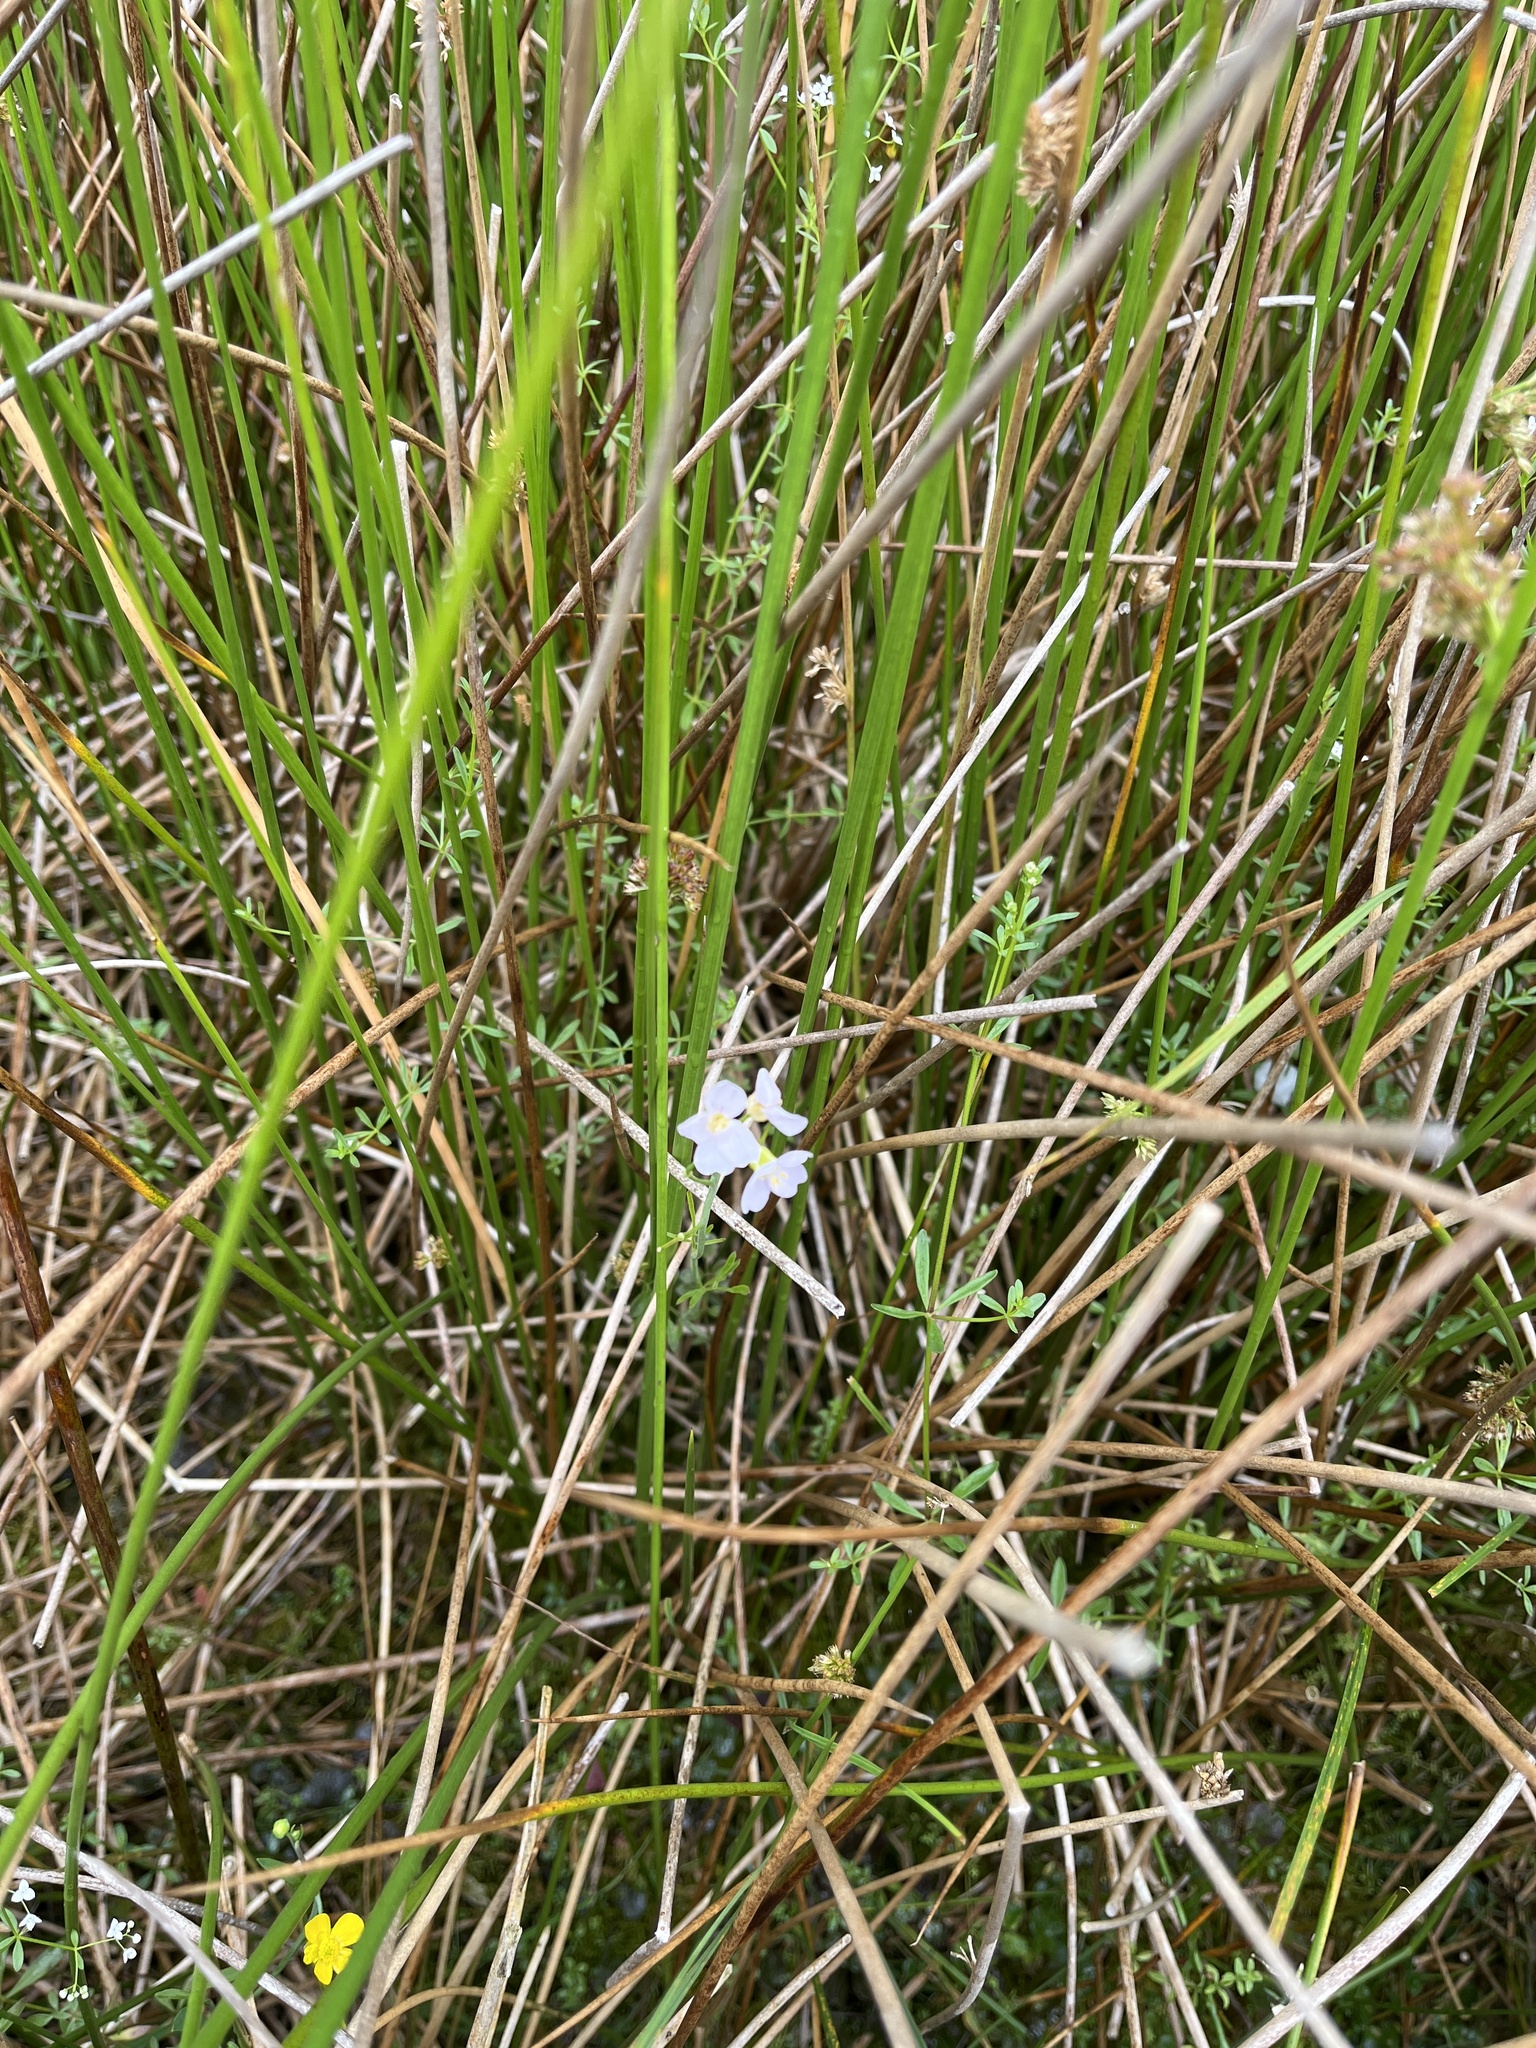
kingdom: Plantae
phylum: Tracheophyta
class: Magnoliopsida
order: Brassicales
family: Brassicaceae
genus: Cardamine
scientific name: Cardamine pratensis
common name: Cuckoo flower
